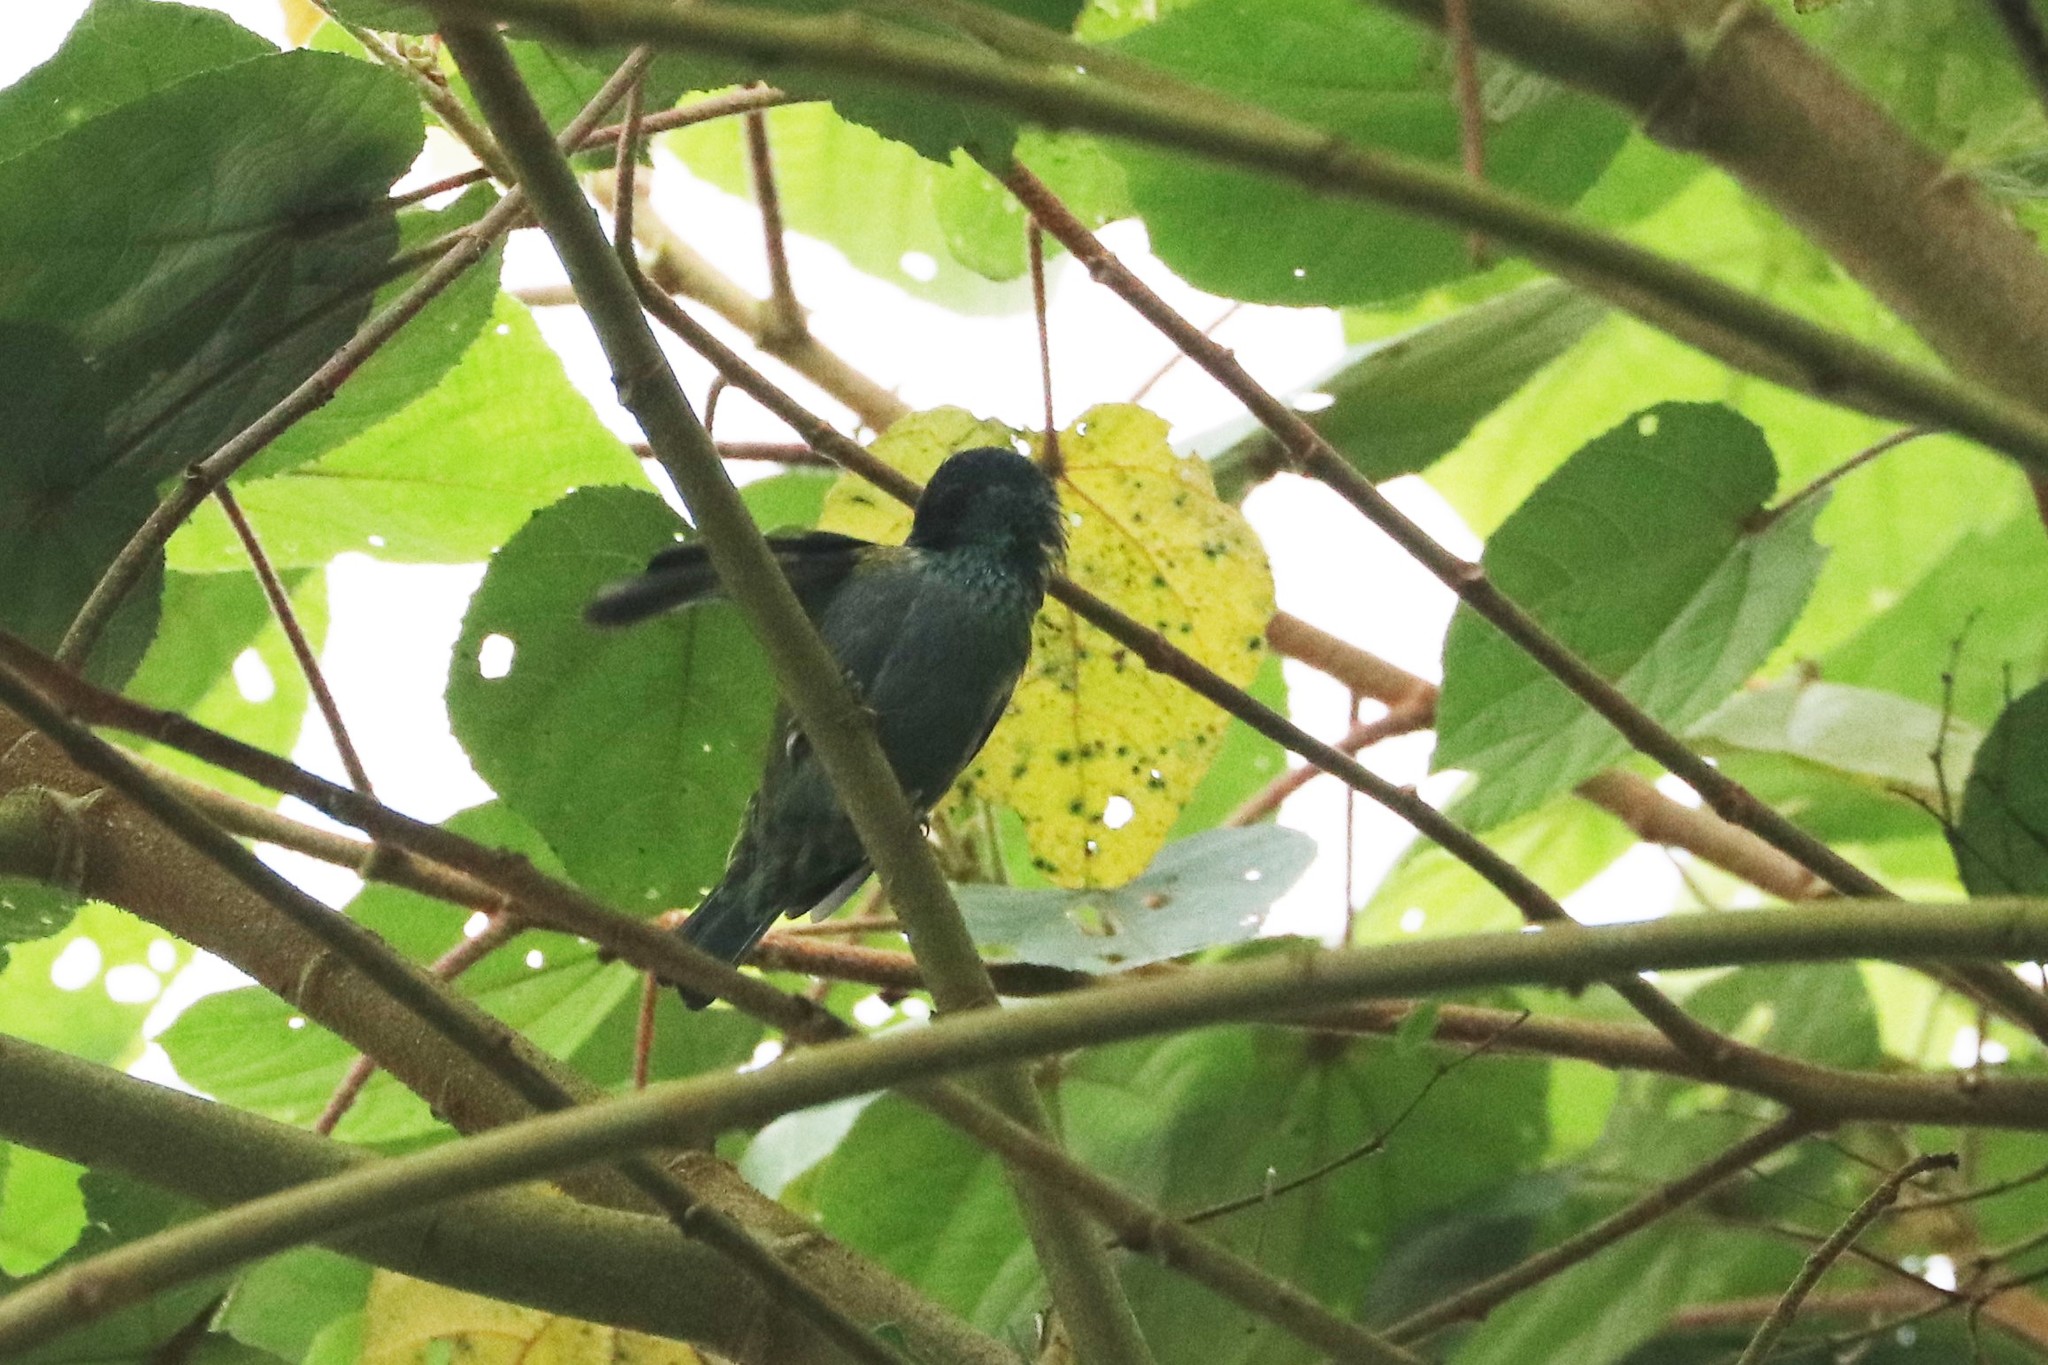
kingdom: Animalia
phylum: Chordata
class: Aves
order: Passeriformes
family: Thraupidae
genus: Stilpnia
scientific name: Stilpnia heinei
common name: Black-capped tanager
